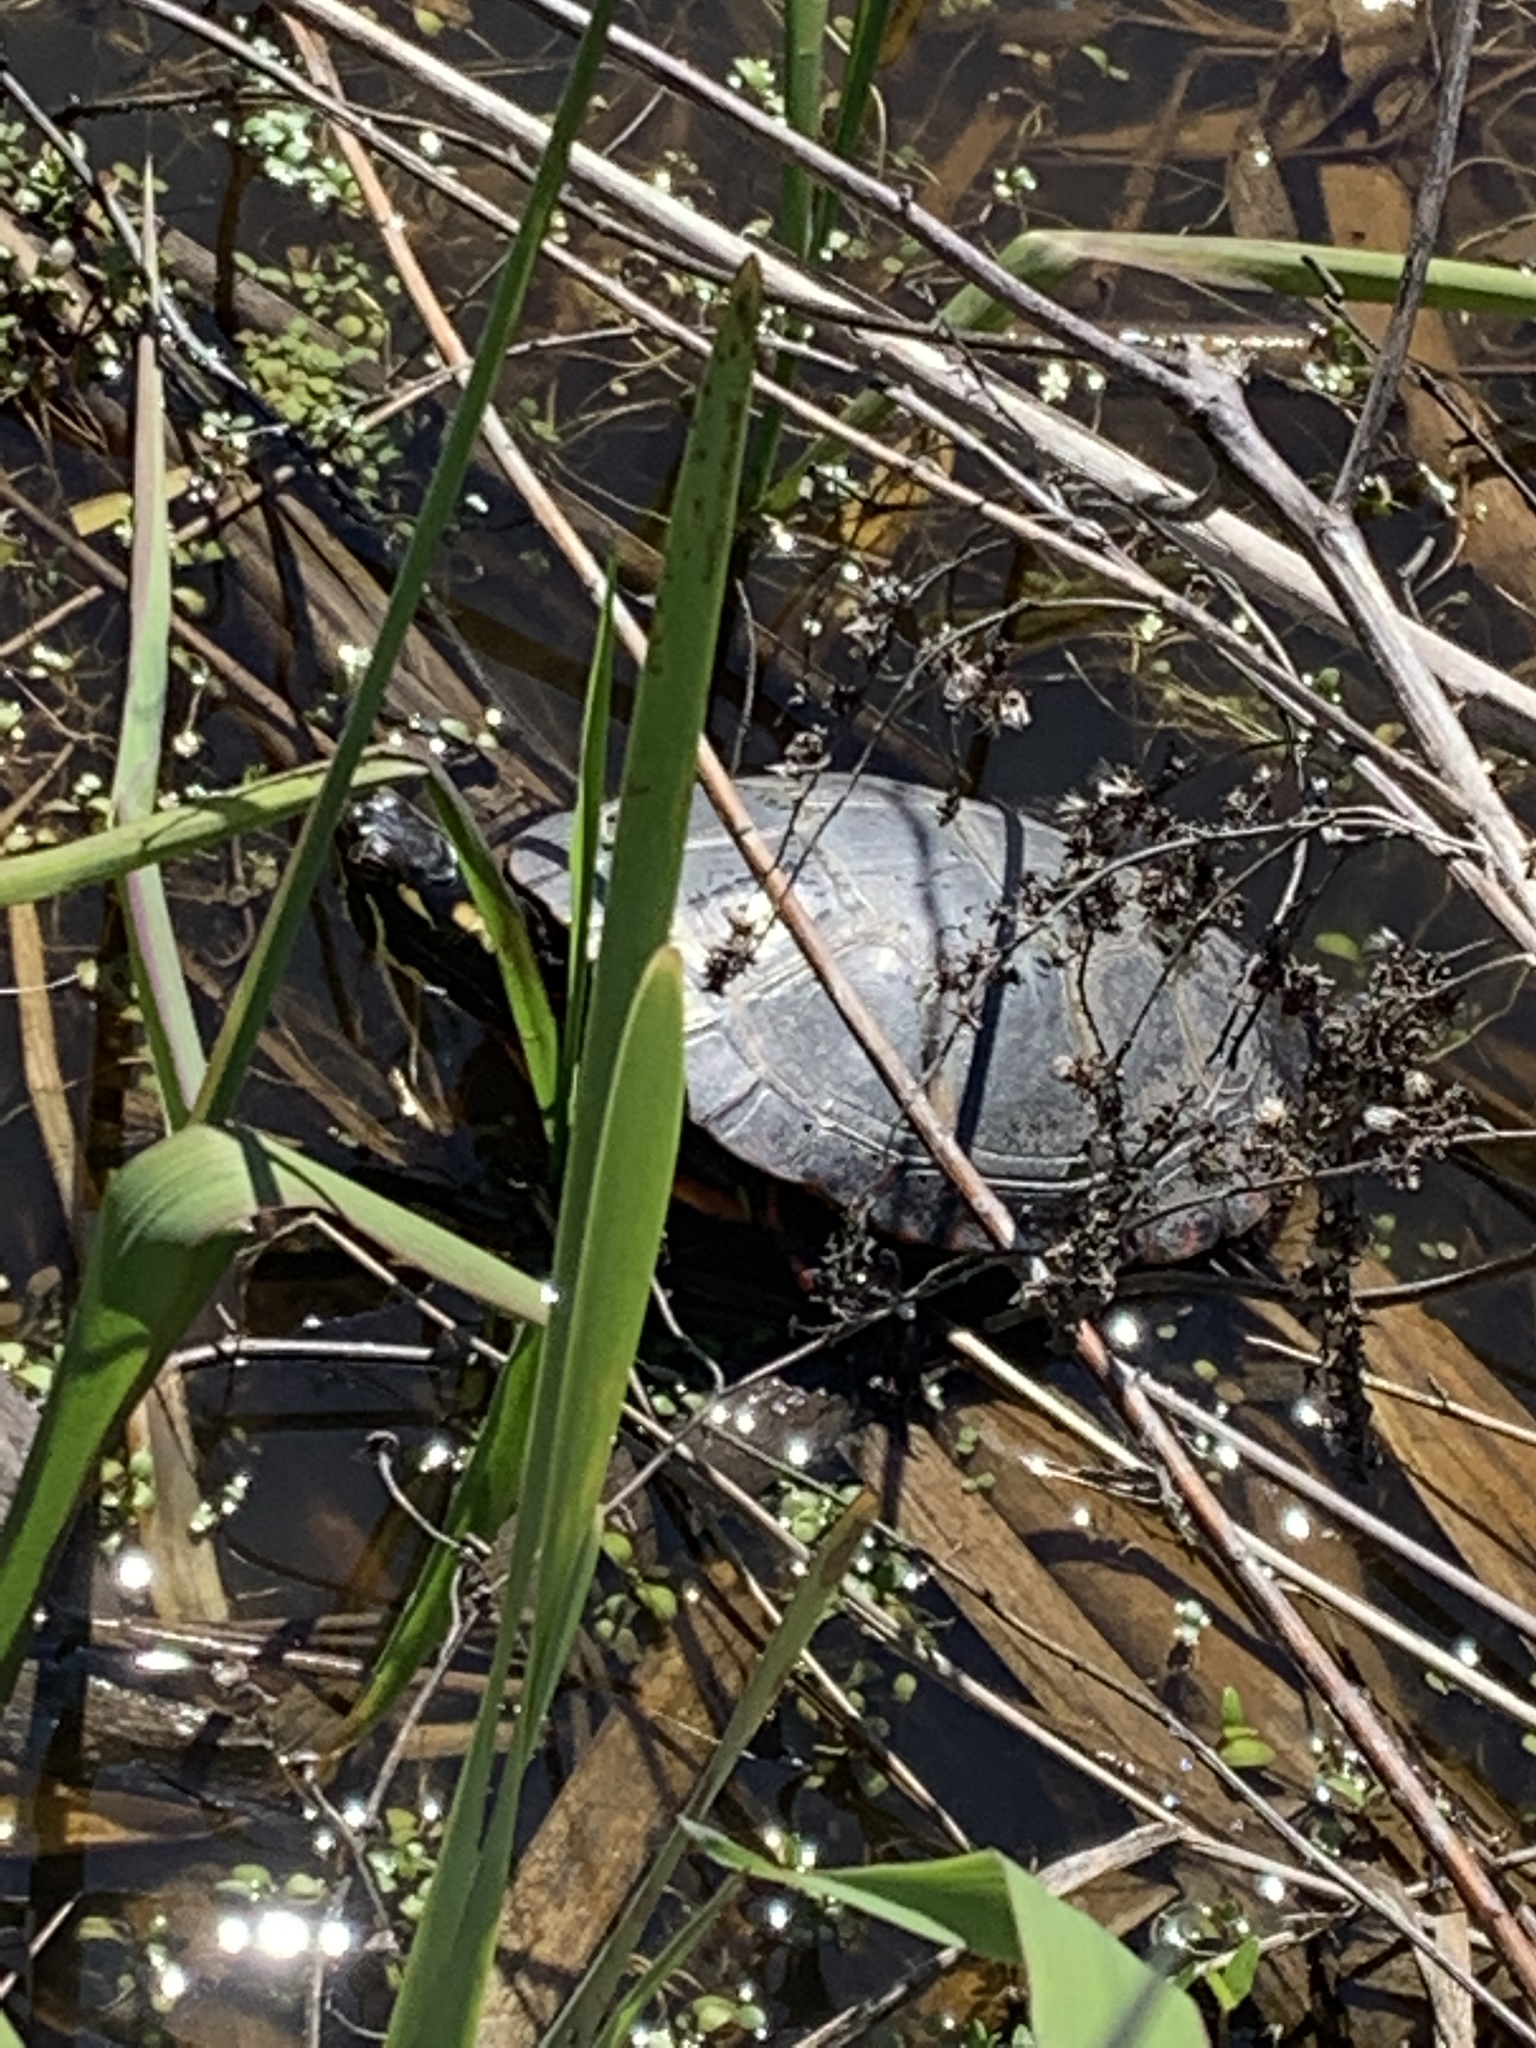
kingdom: Animalia
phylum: Chordata
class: Testudines
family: Emydidae
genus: Chrysemys
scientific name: Chrysemys picta
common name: Painted turtle
